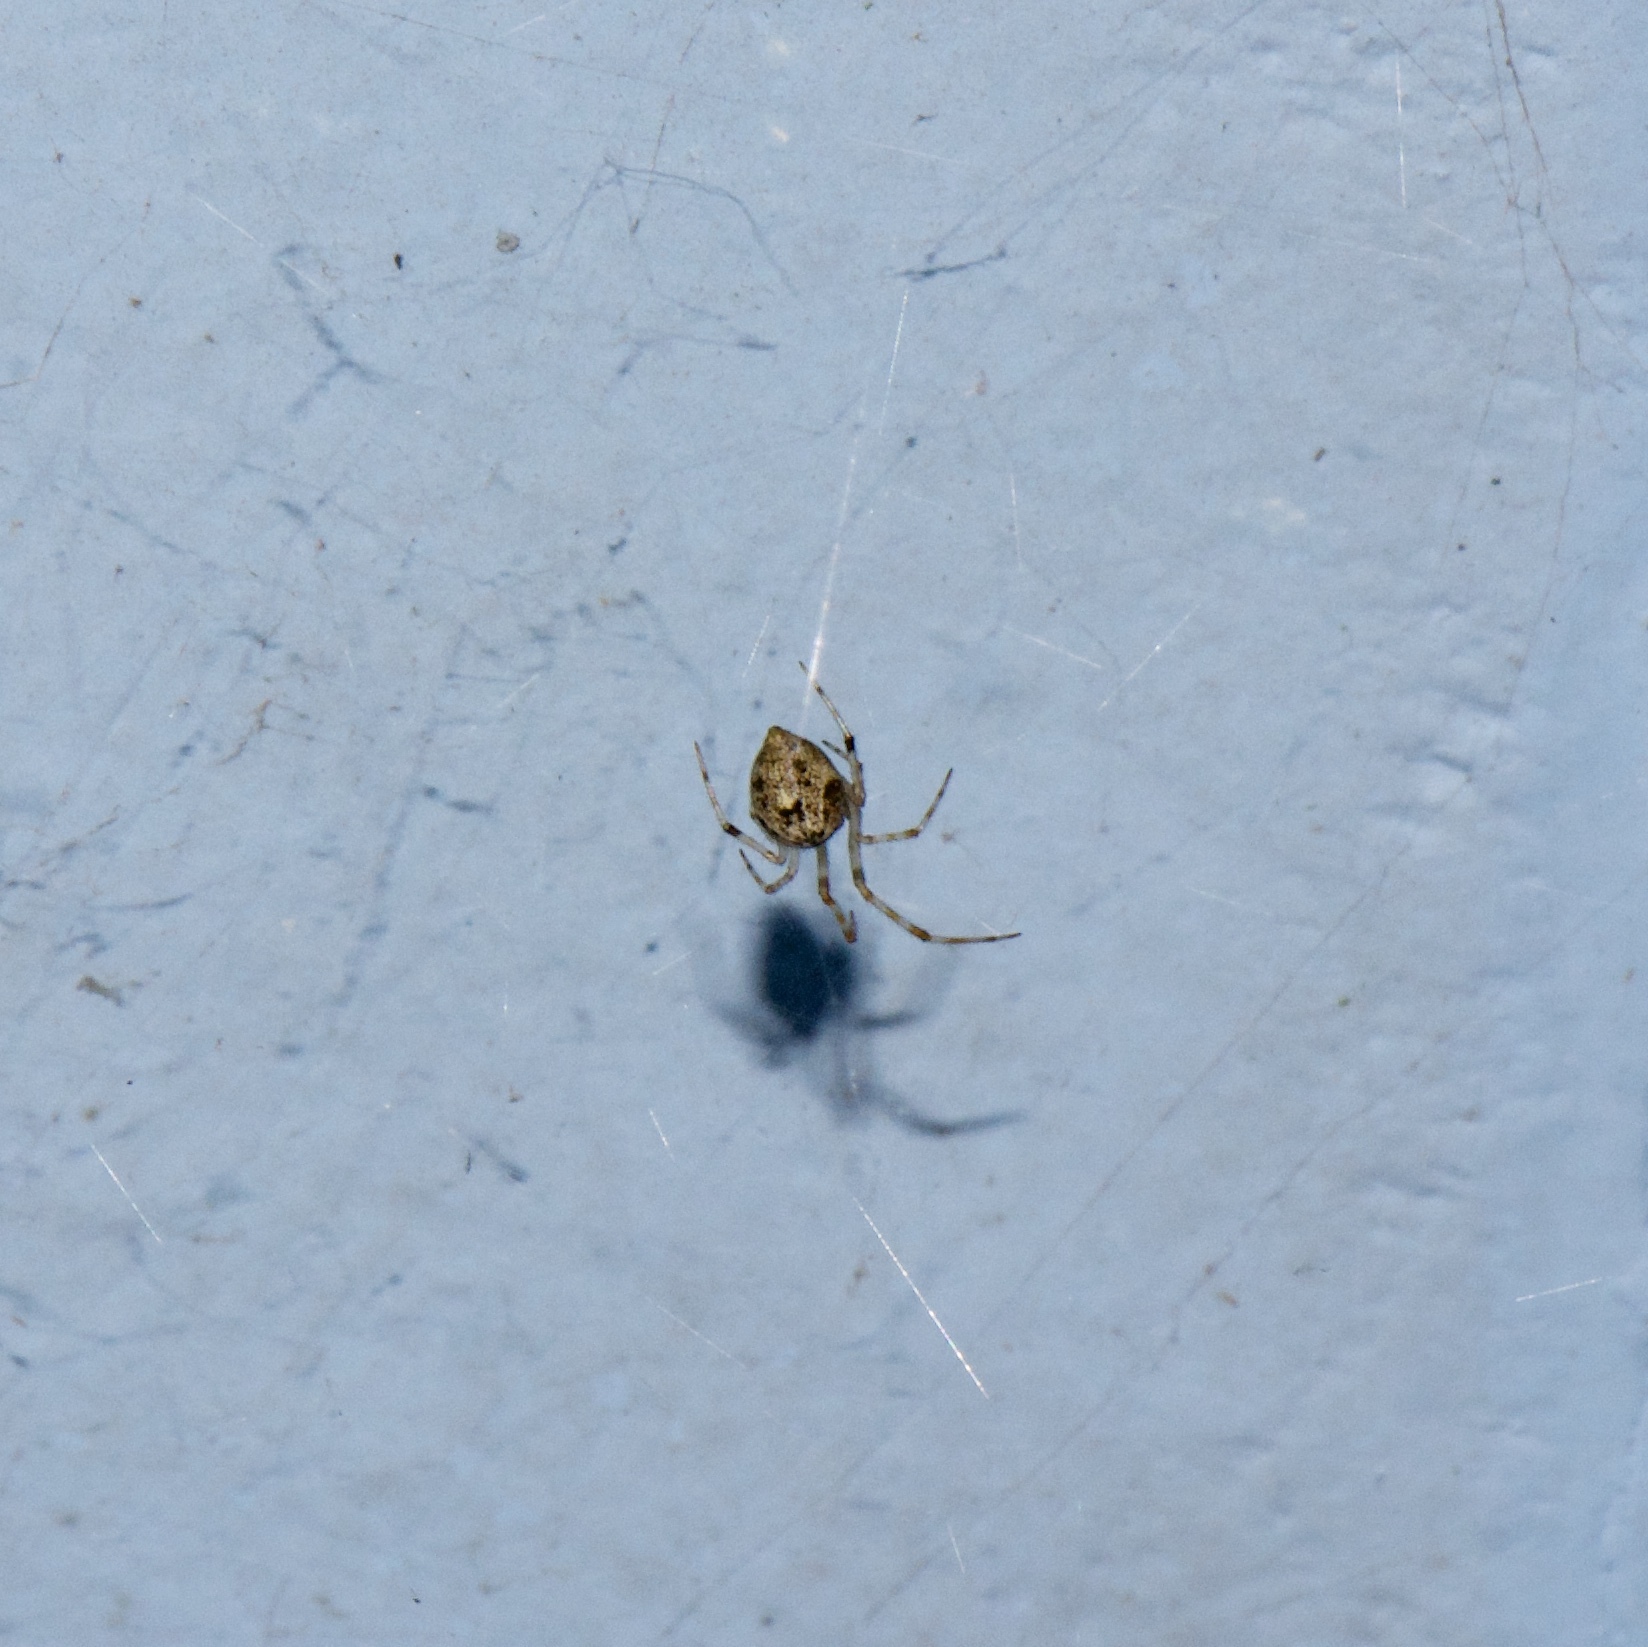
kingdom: Animalia
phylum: Arthropoda
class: Arachnida
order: Araneae
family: Theridiidae
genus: Parasteatoda
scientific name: Parasteatoda tepidariorum
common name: Common house spider
